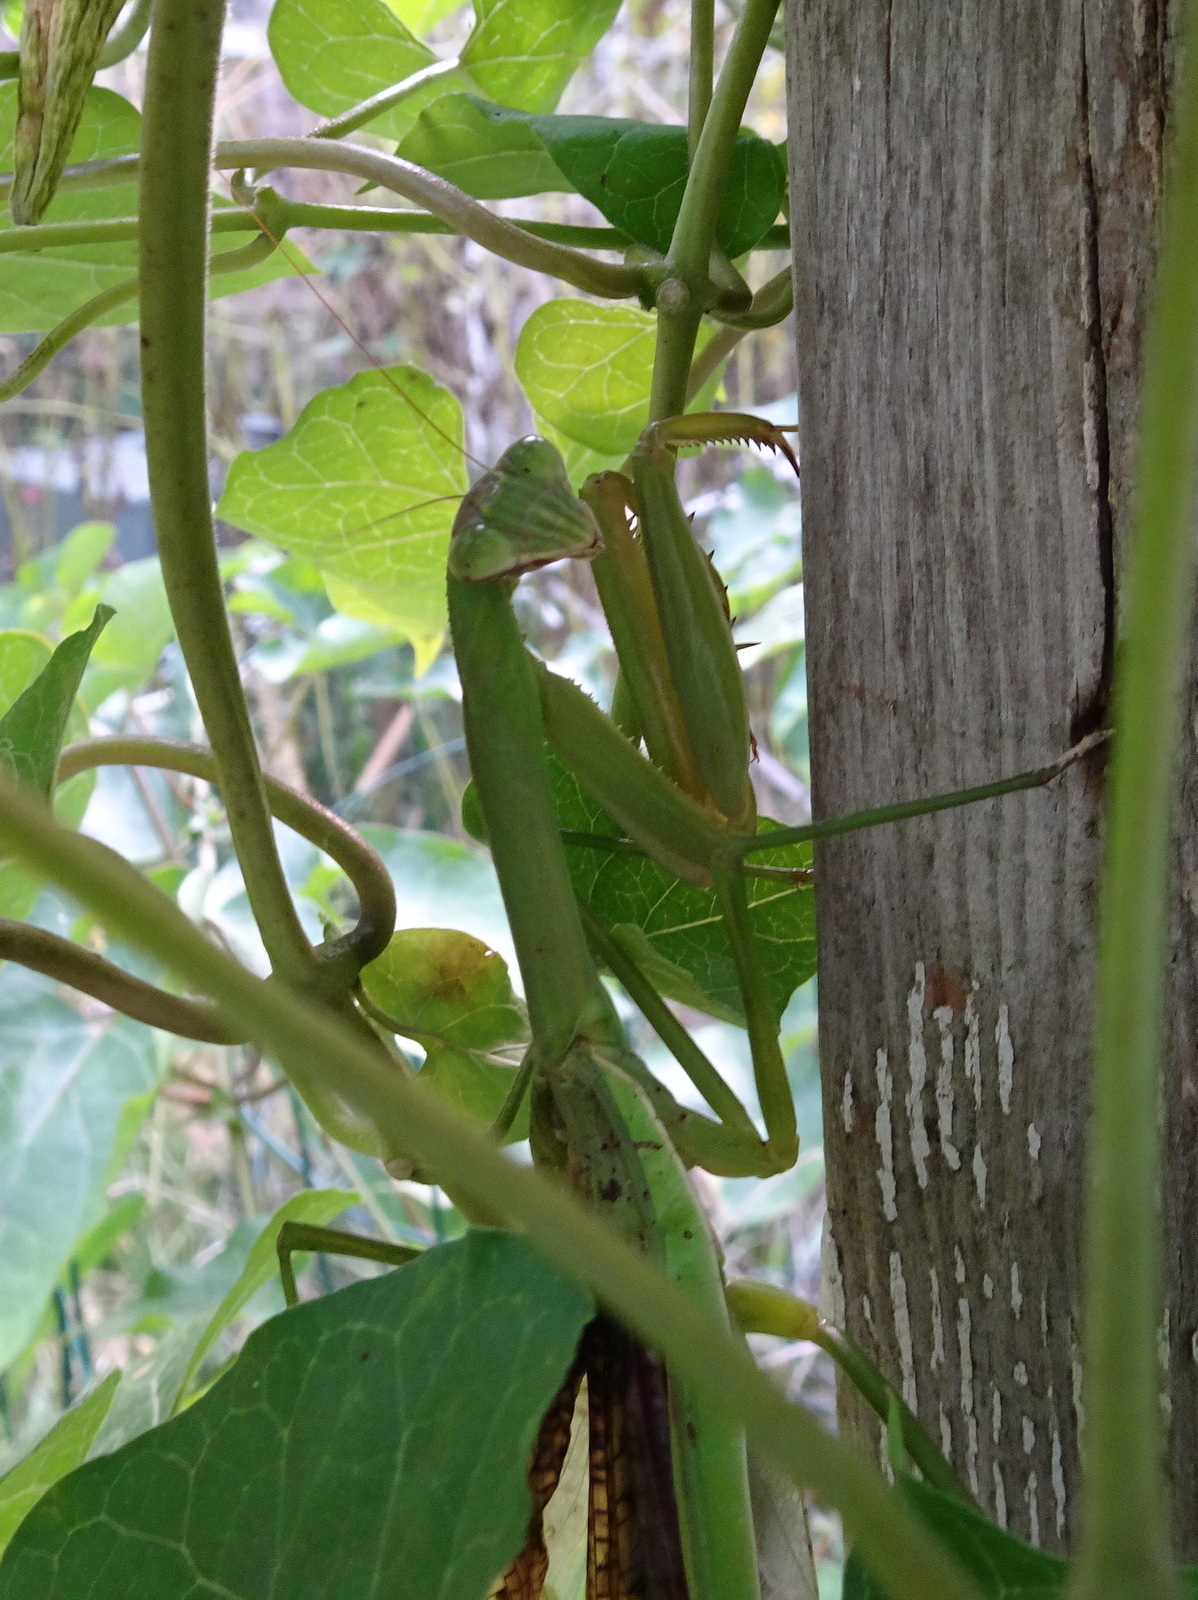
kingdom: Animalia
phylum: Arthropoda
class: Insecta
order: Mantodea
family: Mantidae
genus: Tenodera
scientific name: Tenodera sinensis
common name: Chinese mantis
